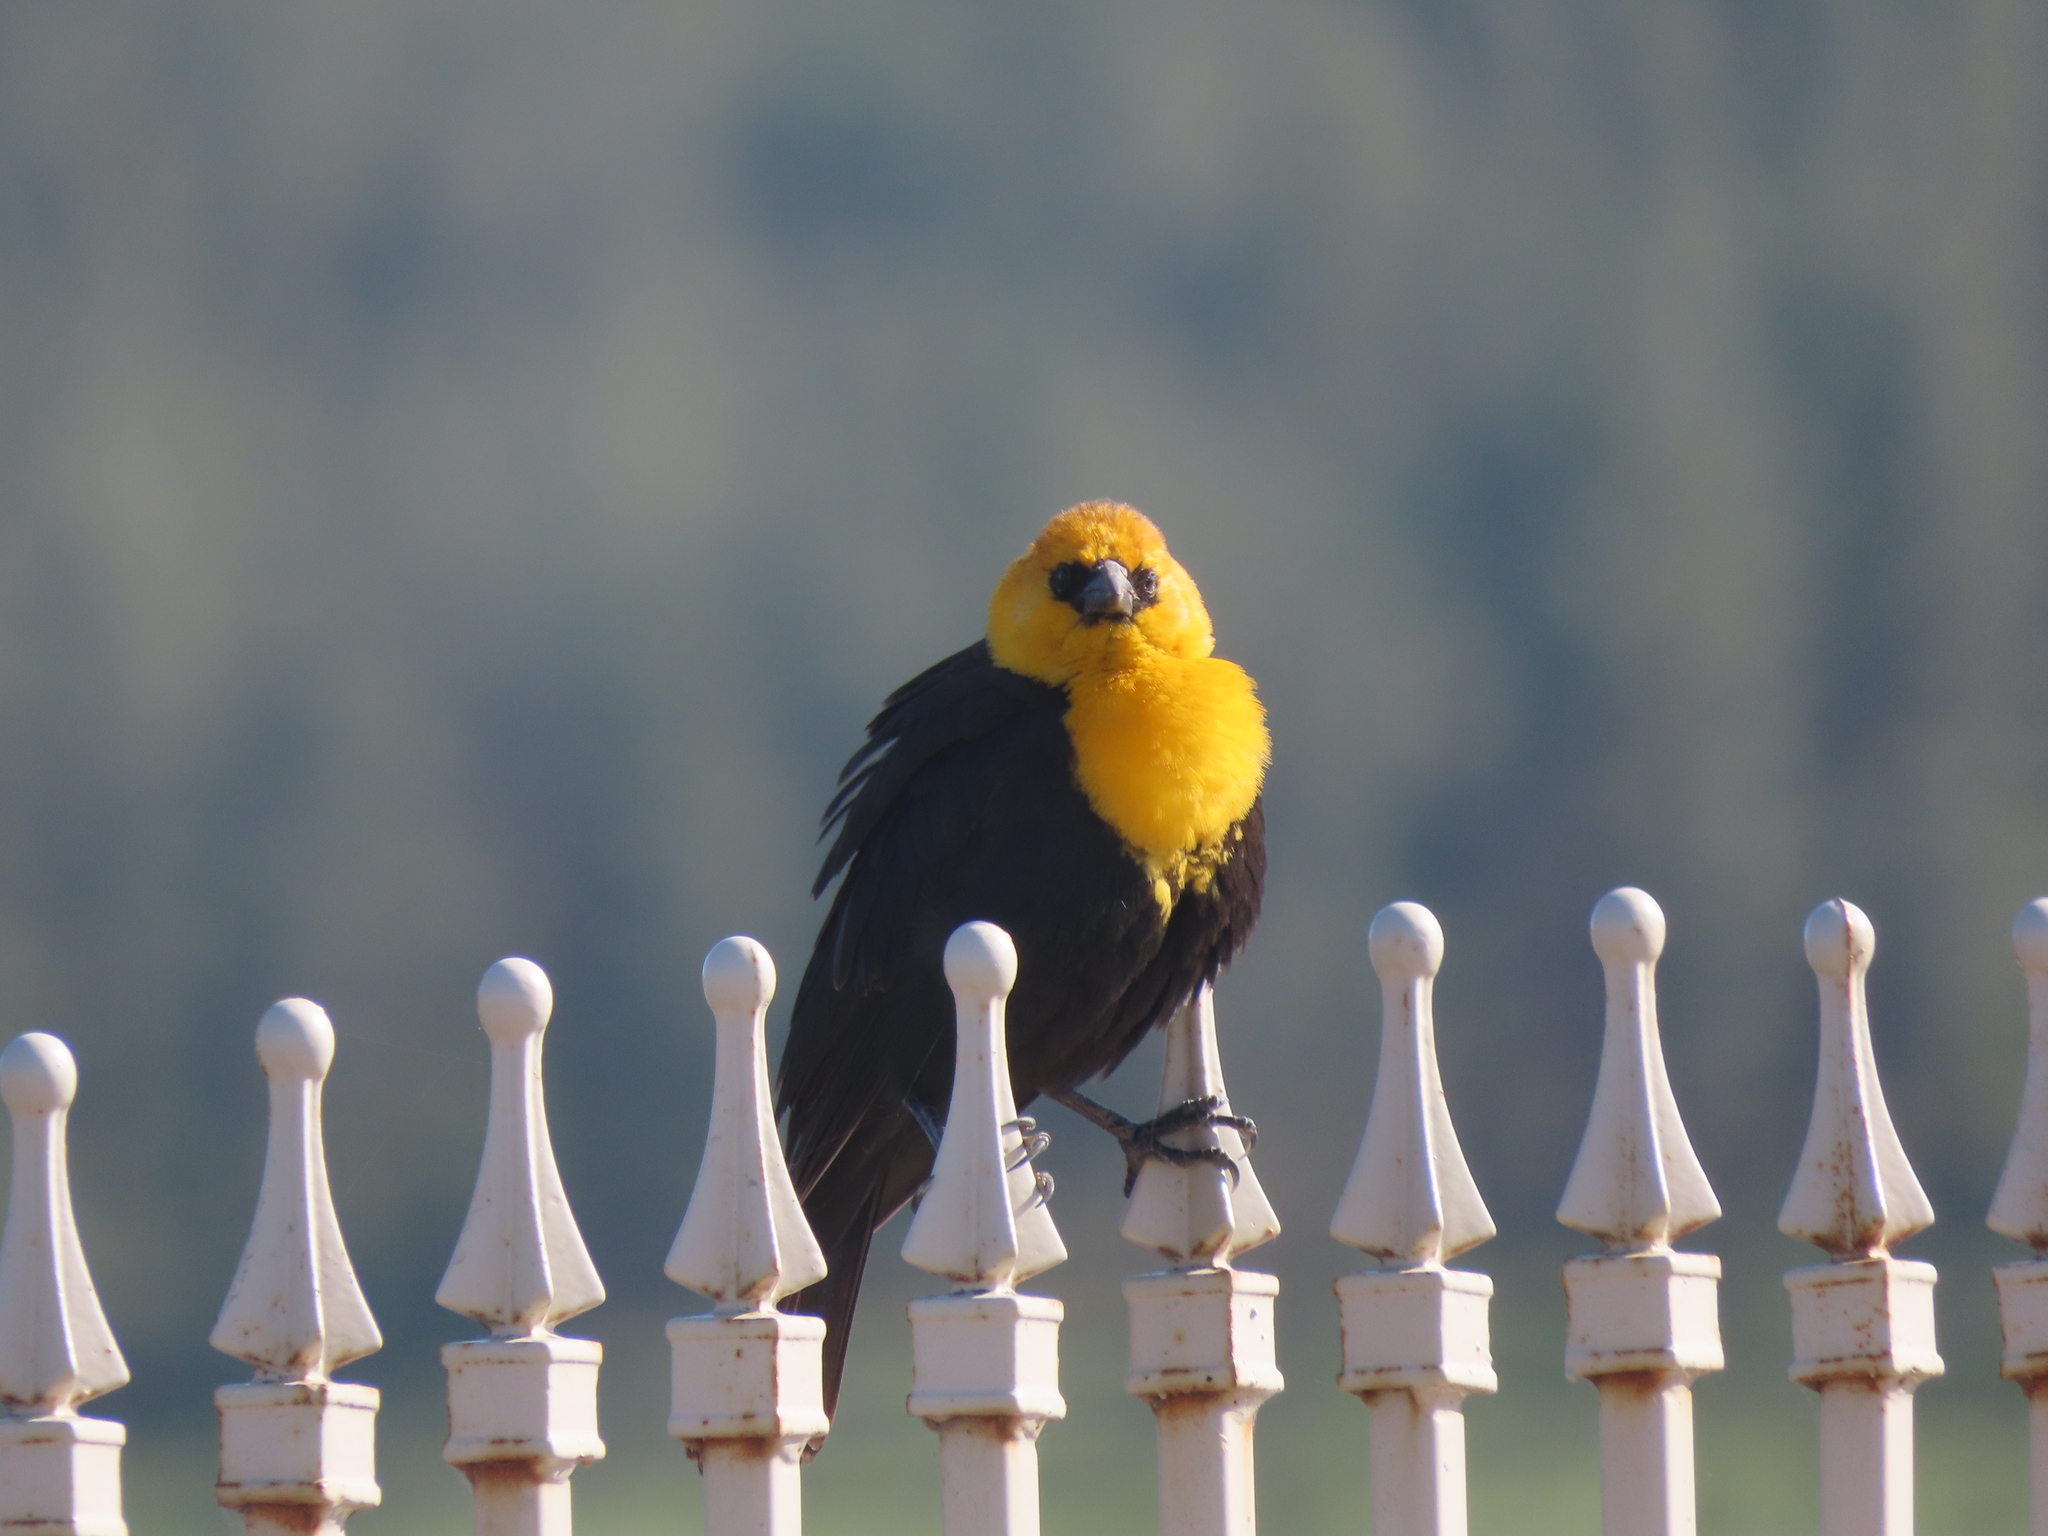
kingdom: Animalia
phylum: Chordata
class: Aves
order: Passeriformes
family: Icteridae
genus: Xanthocephalus
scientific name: Xanthocephalus xanthocephalus
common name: Yellow-headed blackbird
